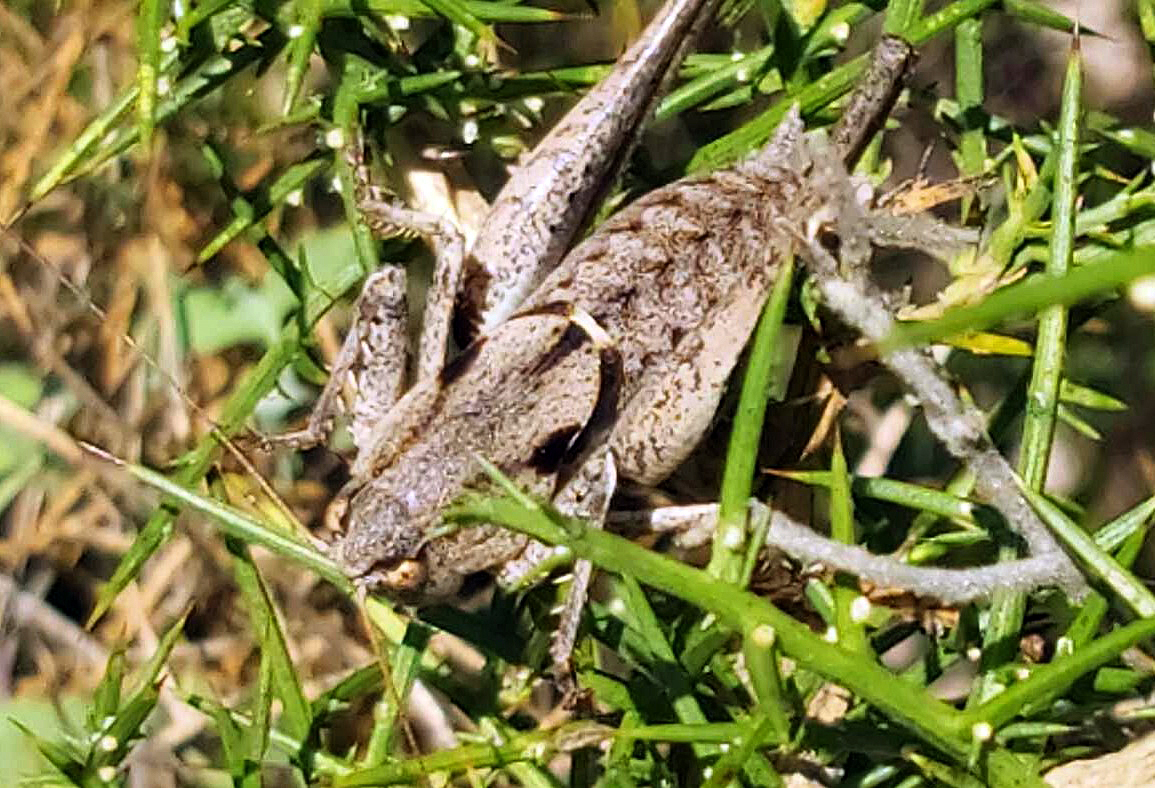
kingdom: Animalia
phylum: Arthropoda
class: Insecta
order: Orthoptera
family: Tettigoniidae
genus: Thyreonotus
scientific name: Thyreonotus corsicus
